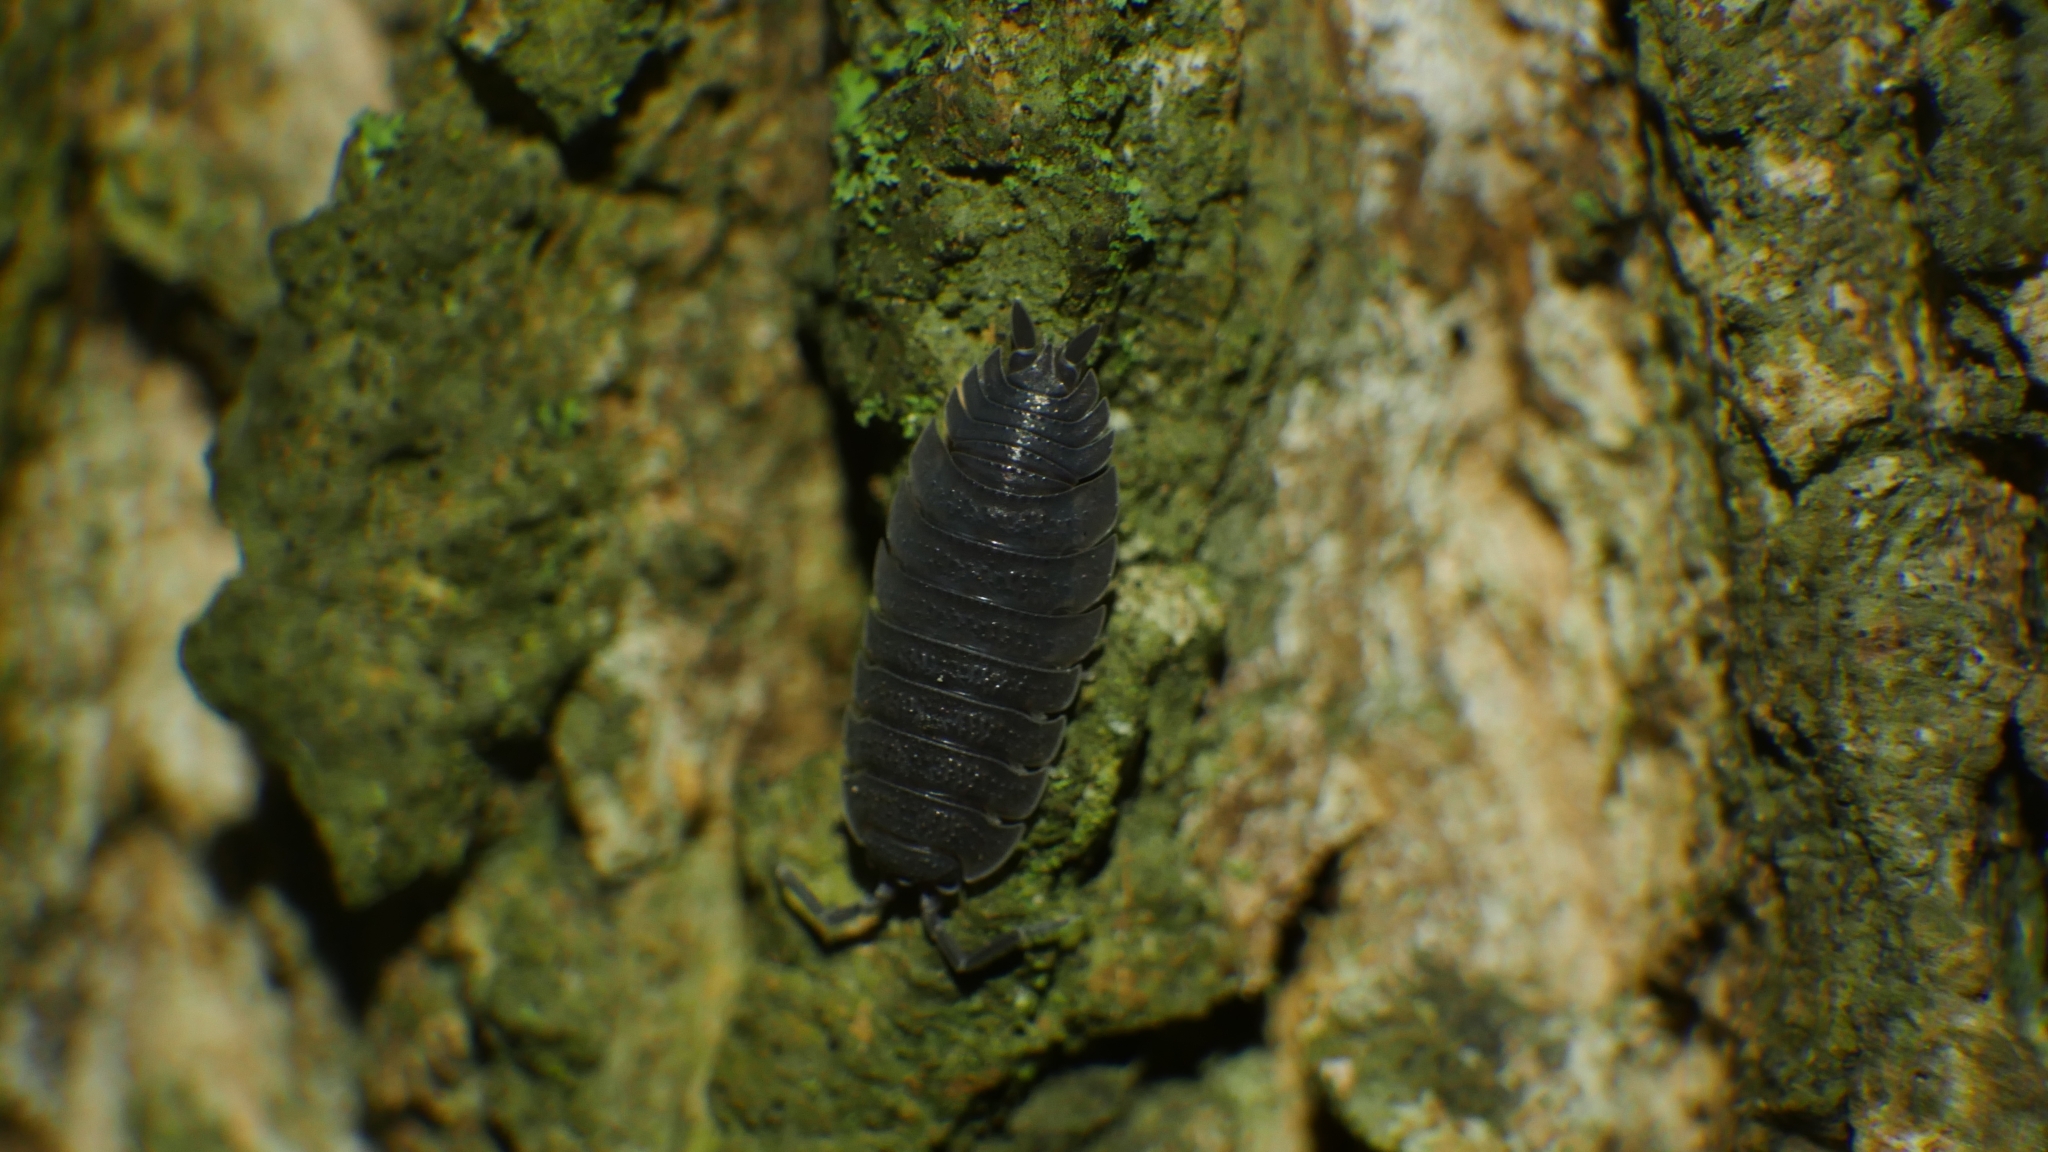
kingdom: Animalia
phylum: Arthropoda
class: Malacostraca
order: Isopoda
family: Porcellionidae
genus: Porcellio
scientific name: Porcellio scaber
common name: Common rough woodlouse
